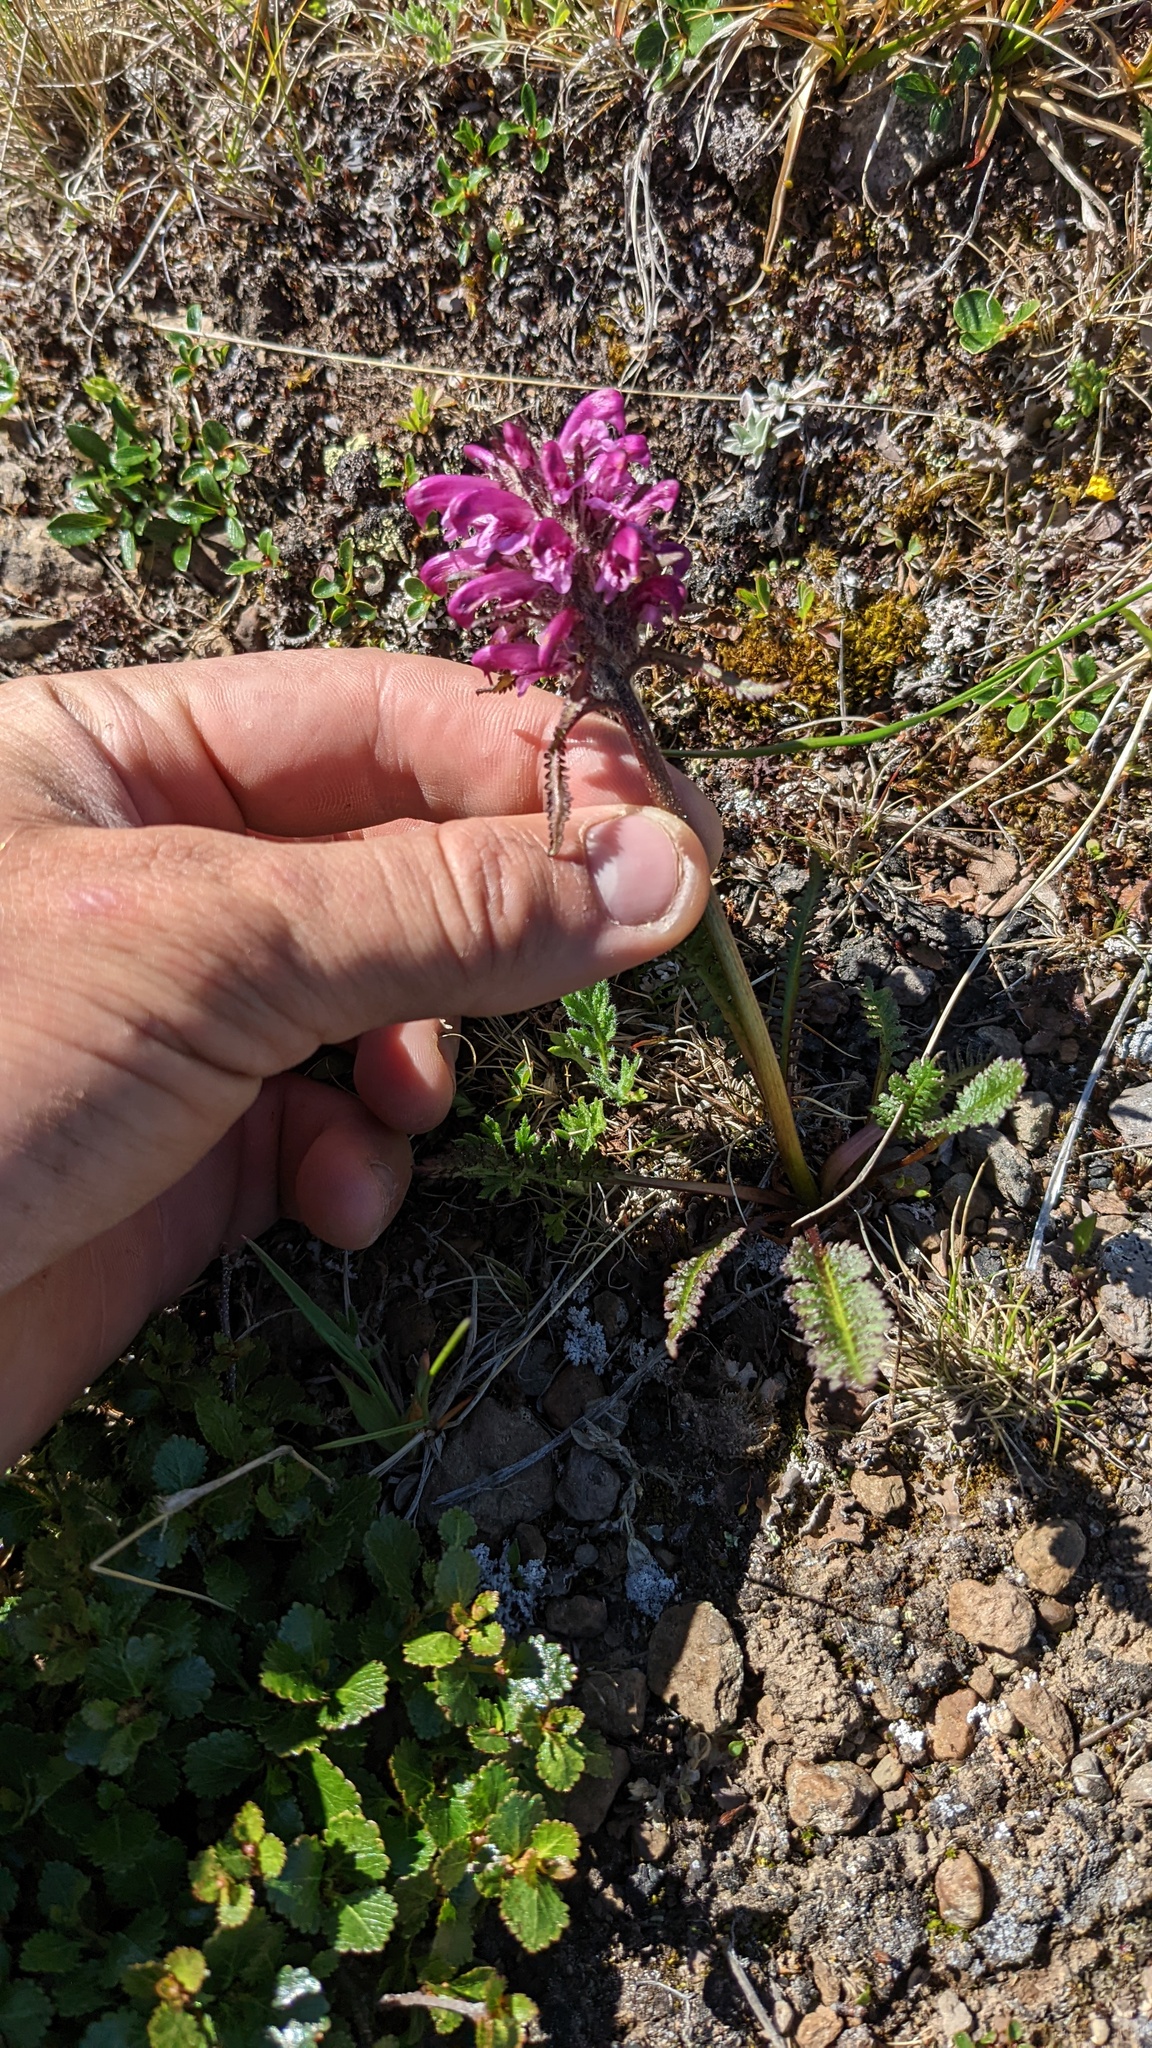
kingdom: Plantae
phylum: Tracheophyta
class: Magnoliopsida
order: Lamiales
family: Orobanchaceae
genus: Pedicularis
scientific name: Pedicularis sudetica
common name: Sudeten lousewort
